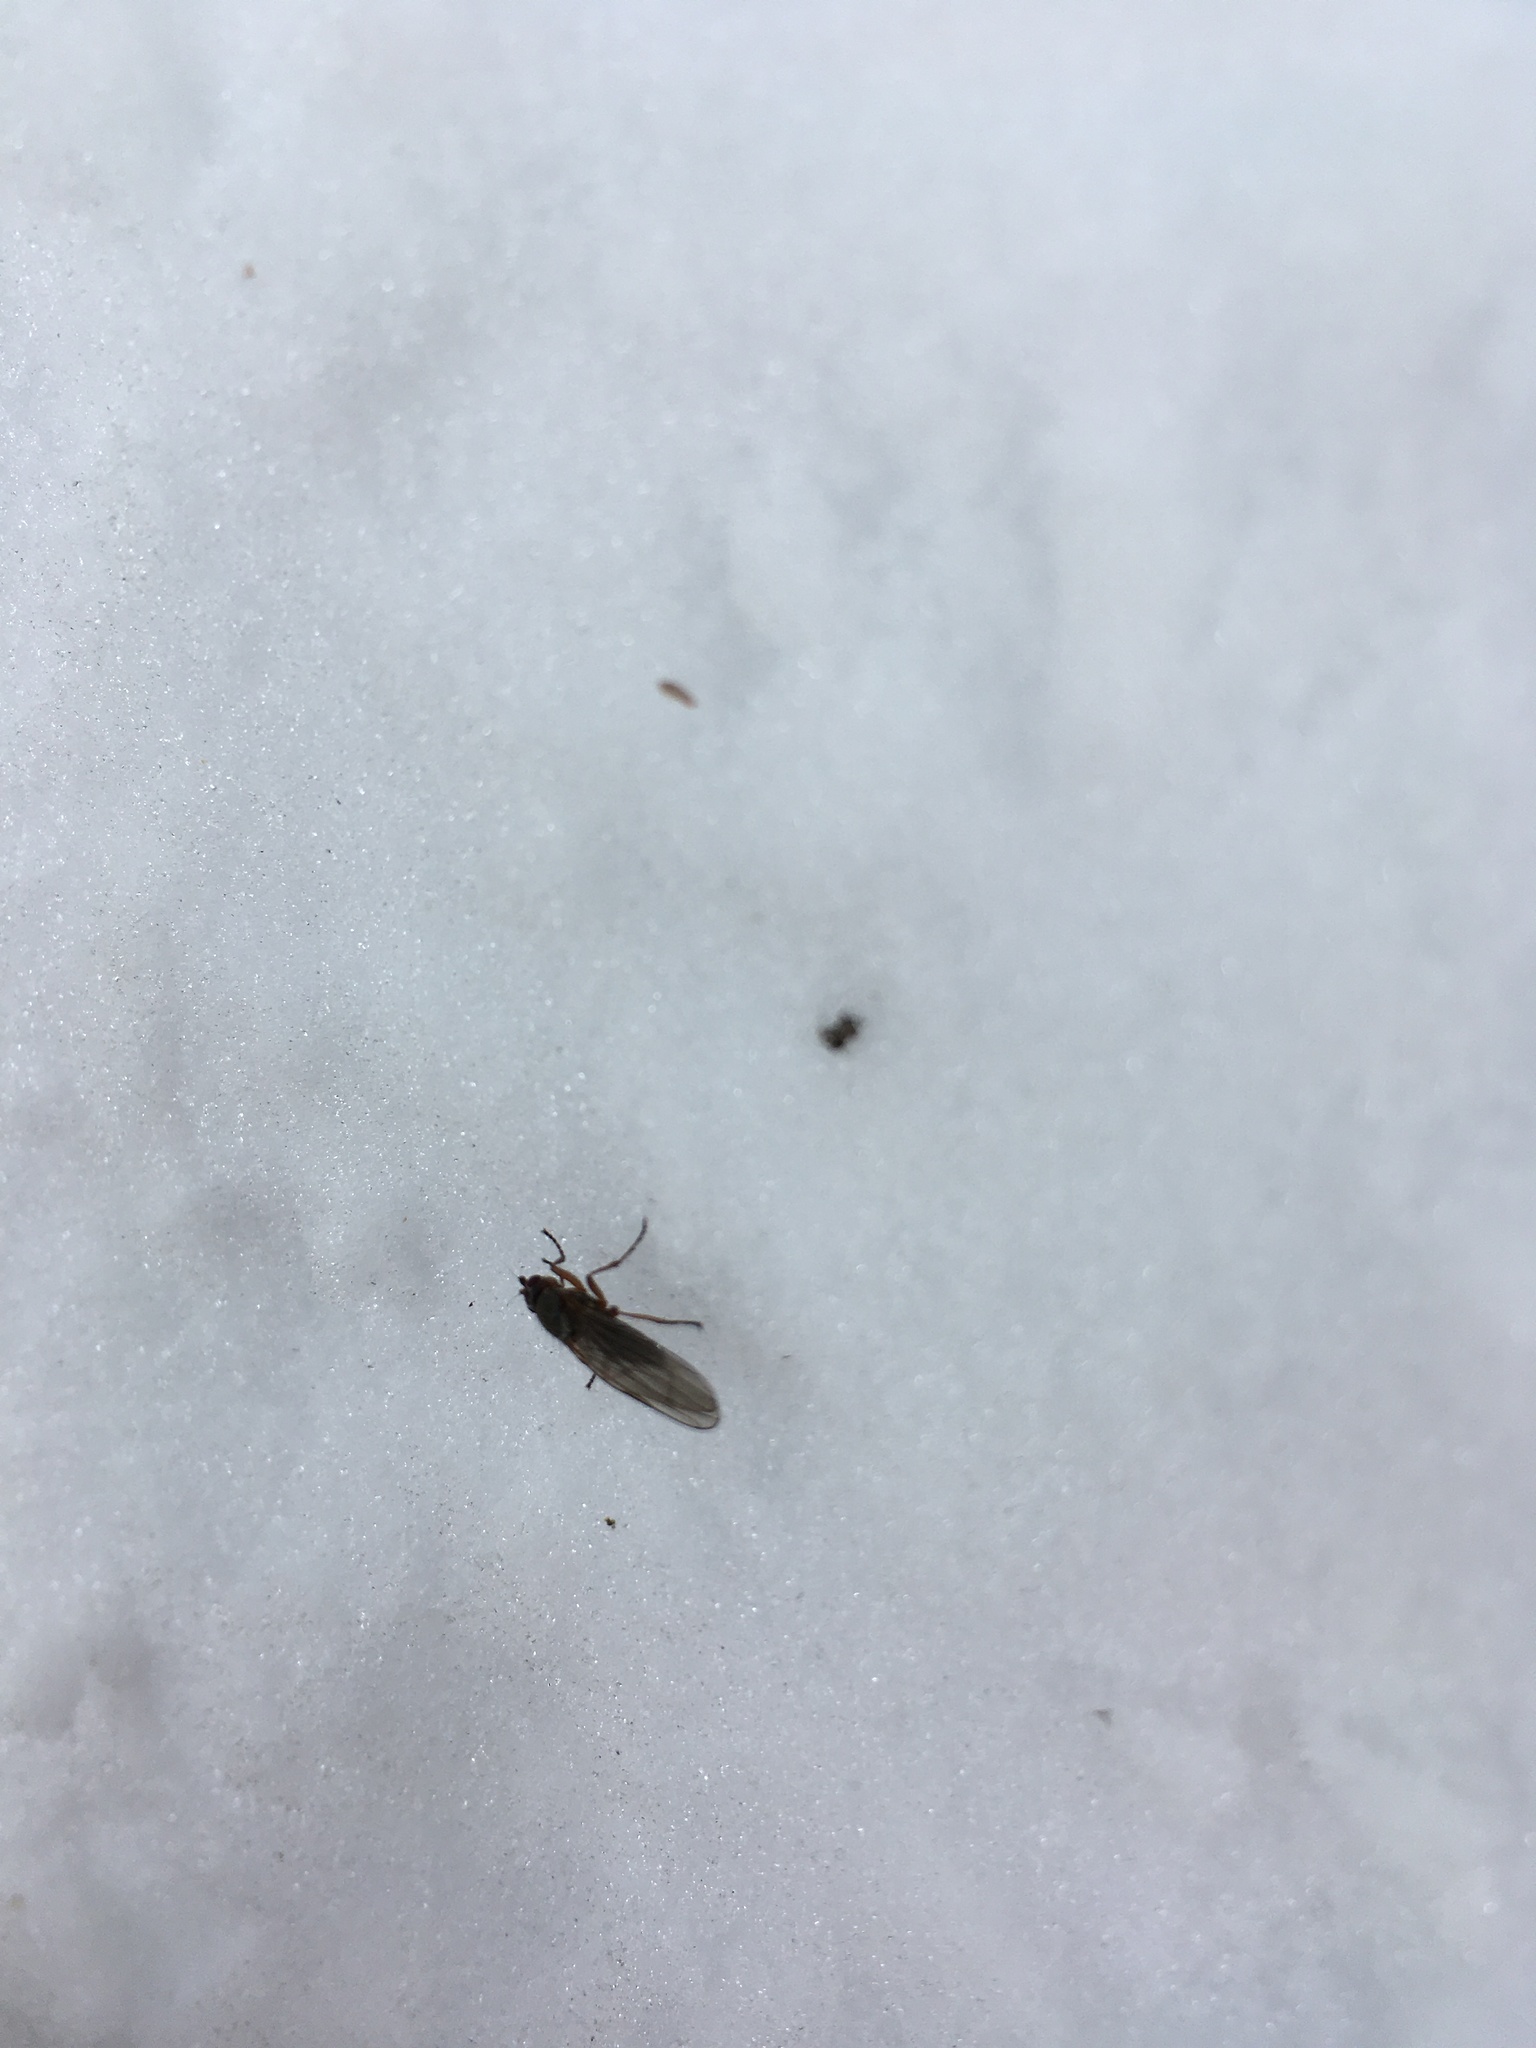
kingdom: Animalia
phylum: Arthropoda
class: Insecta
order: Diptera
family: Heleomyzidae
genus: Orbellia
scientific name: Orbellia barbata
